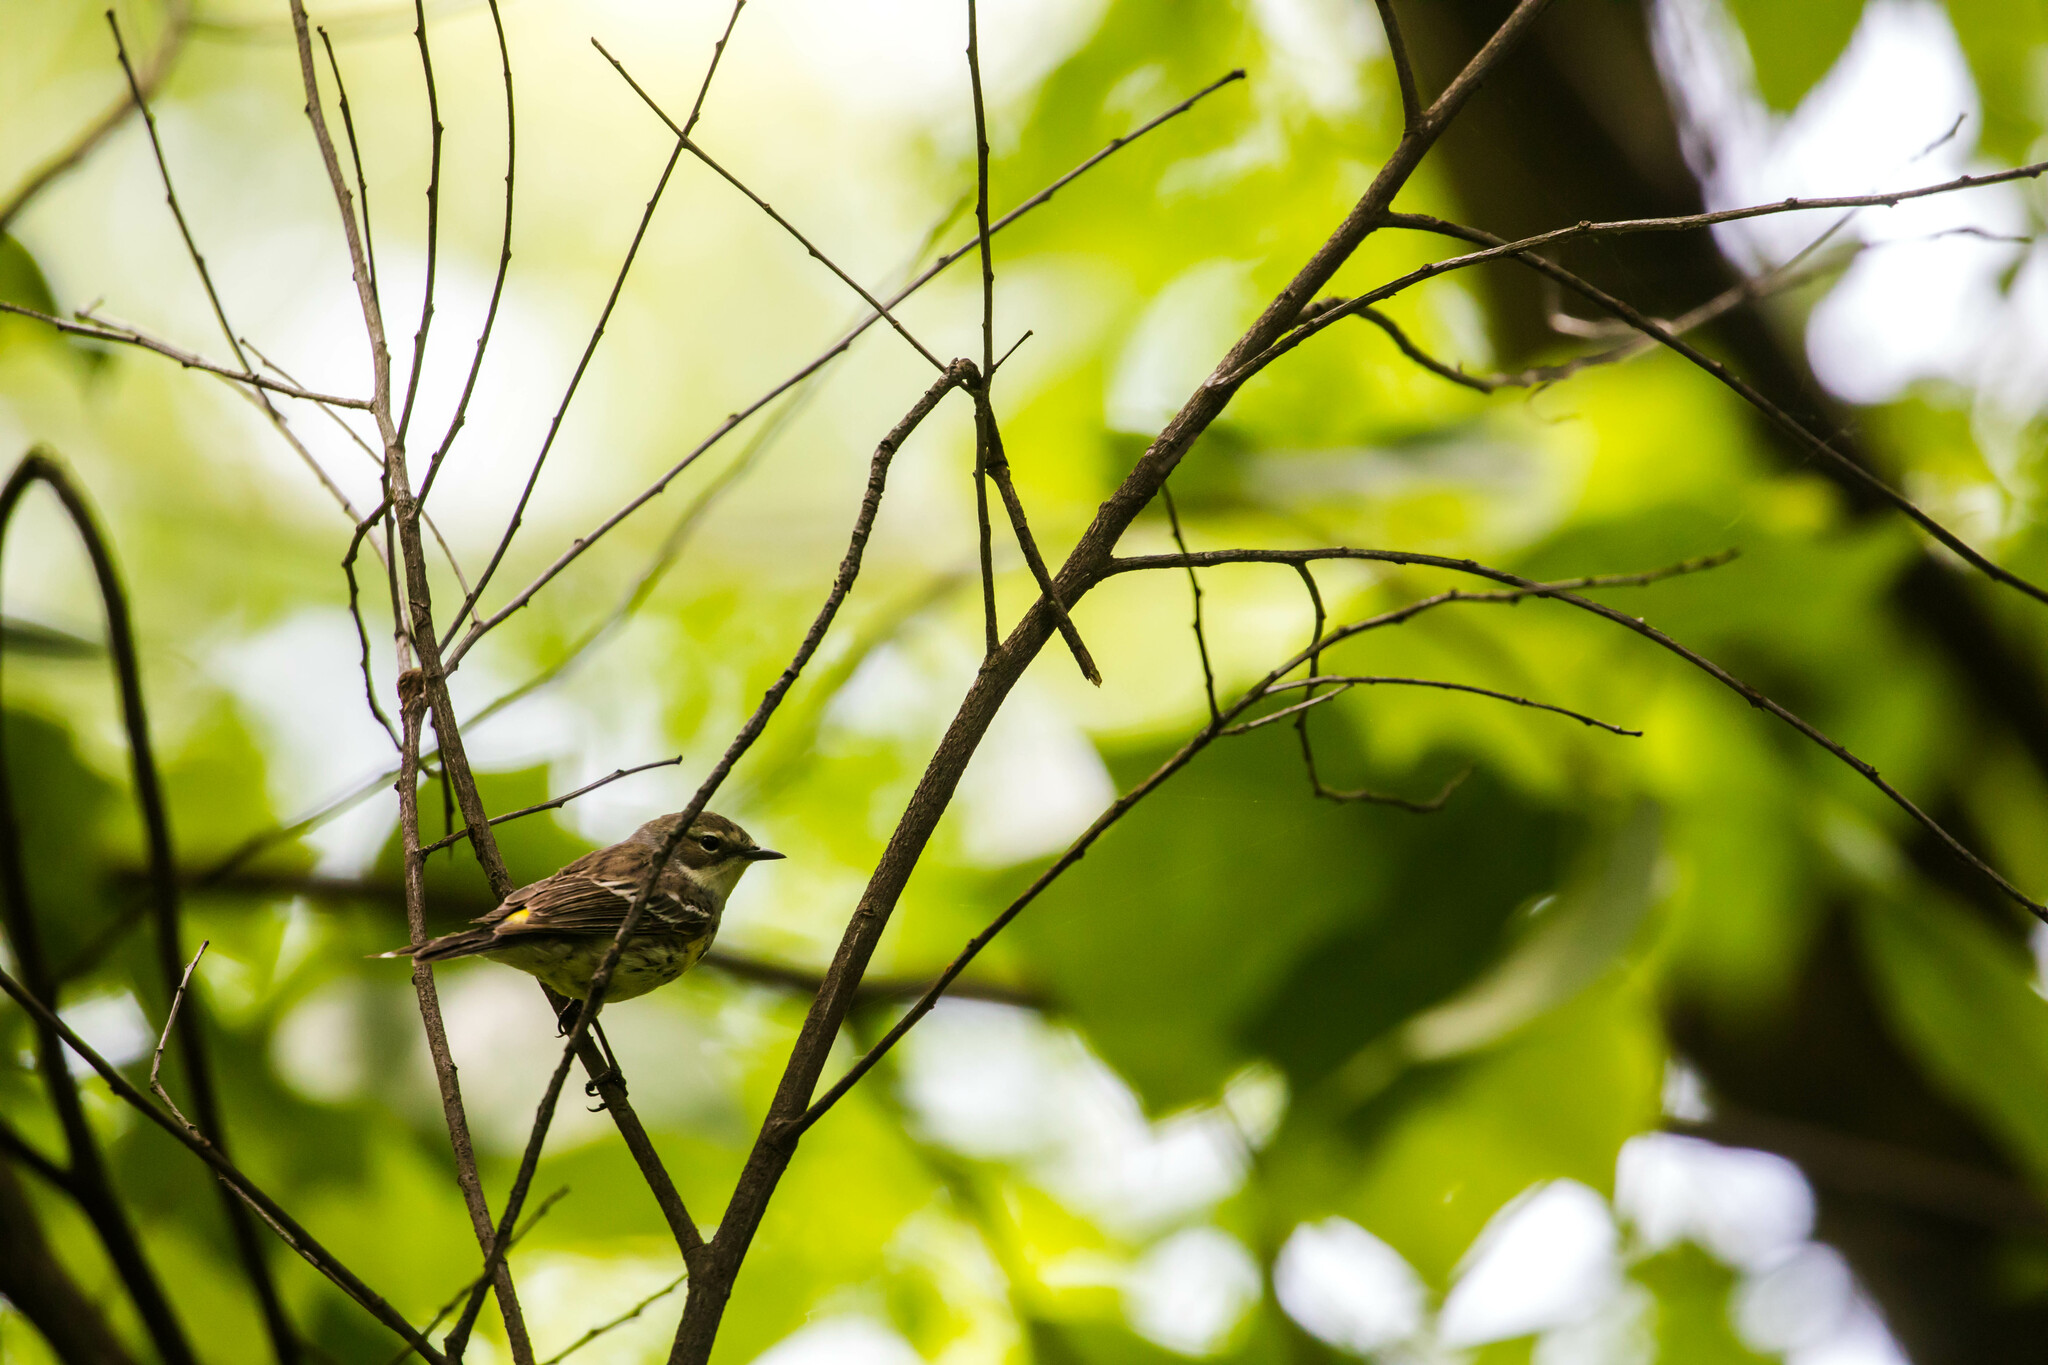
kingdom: Animalia
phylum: Chordata
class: Aves
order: Passeriformes
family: Parulidae
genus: Setophaga
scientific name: Setophaga coronata
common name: Myrtle warbler
